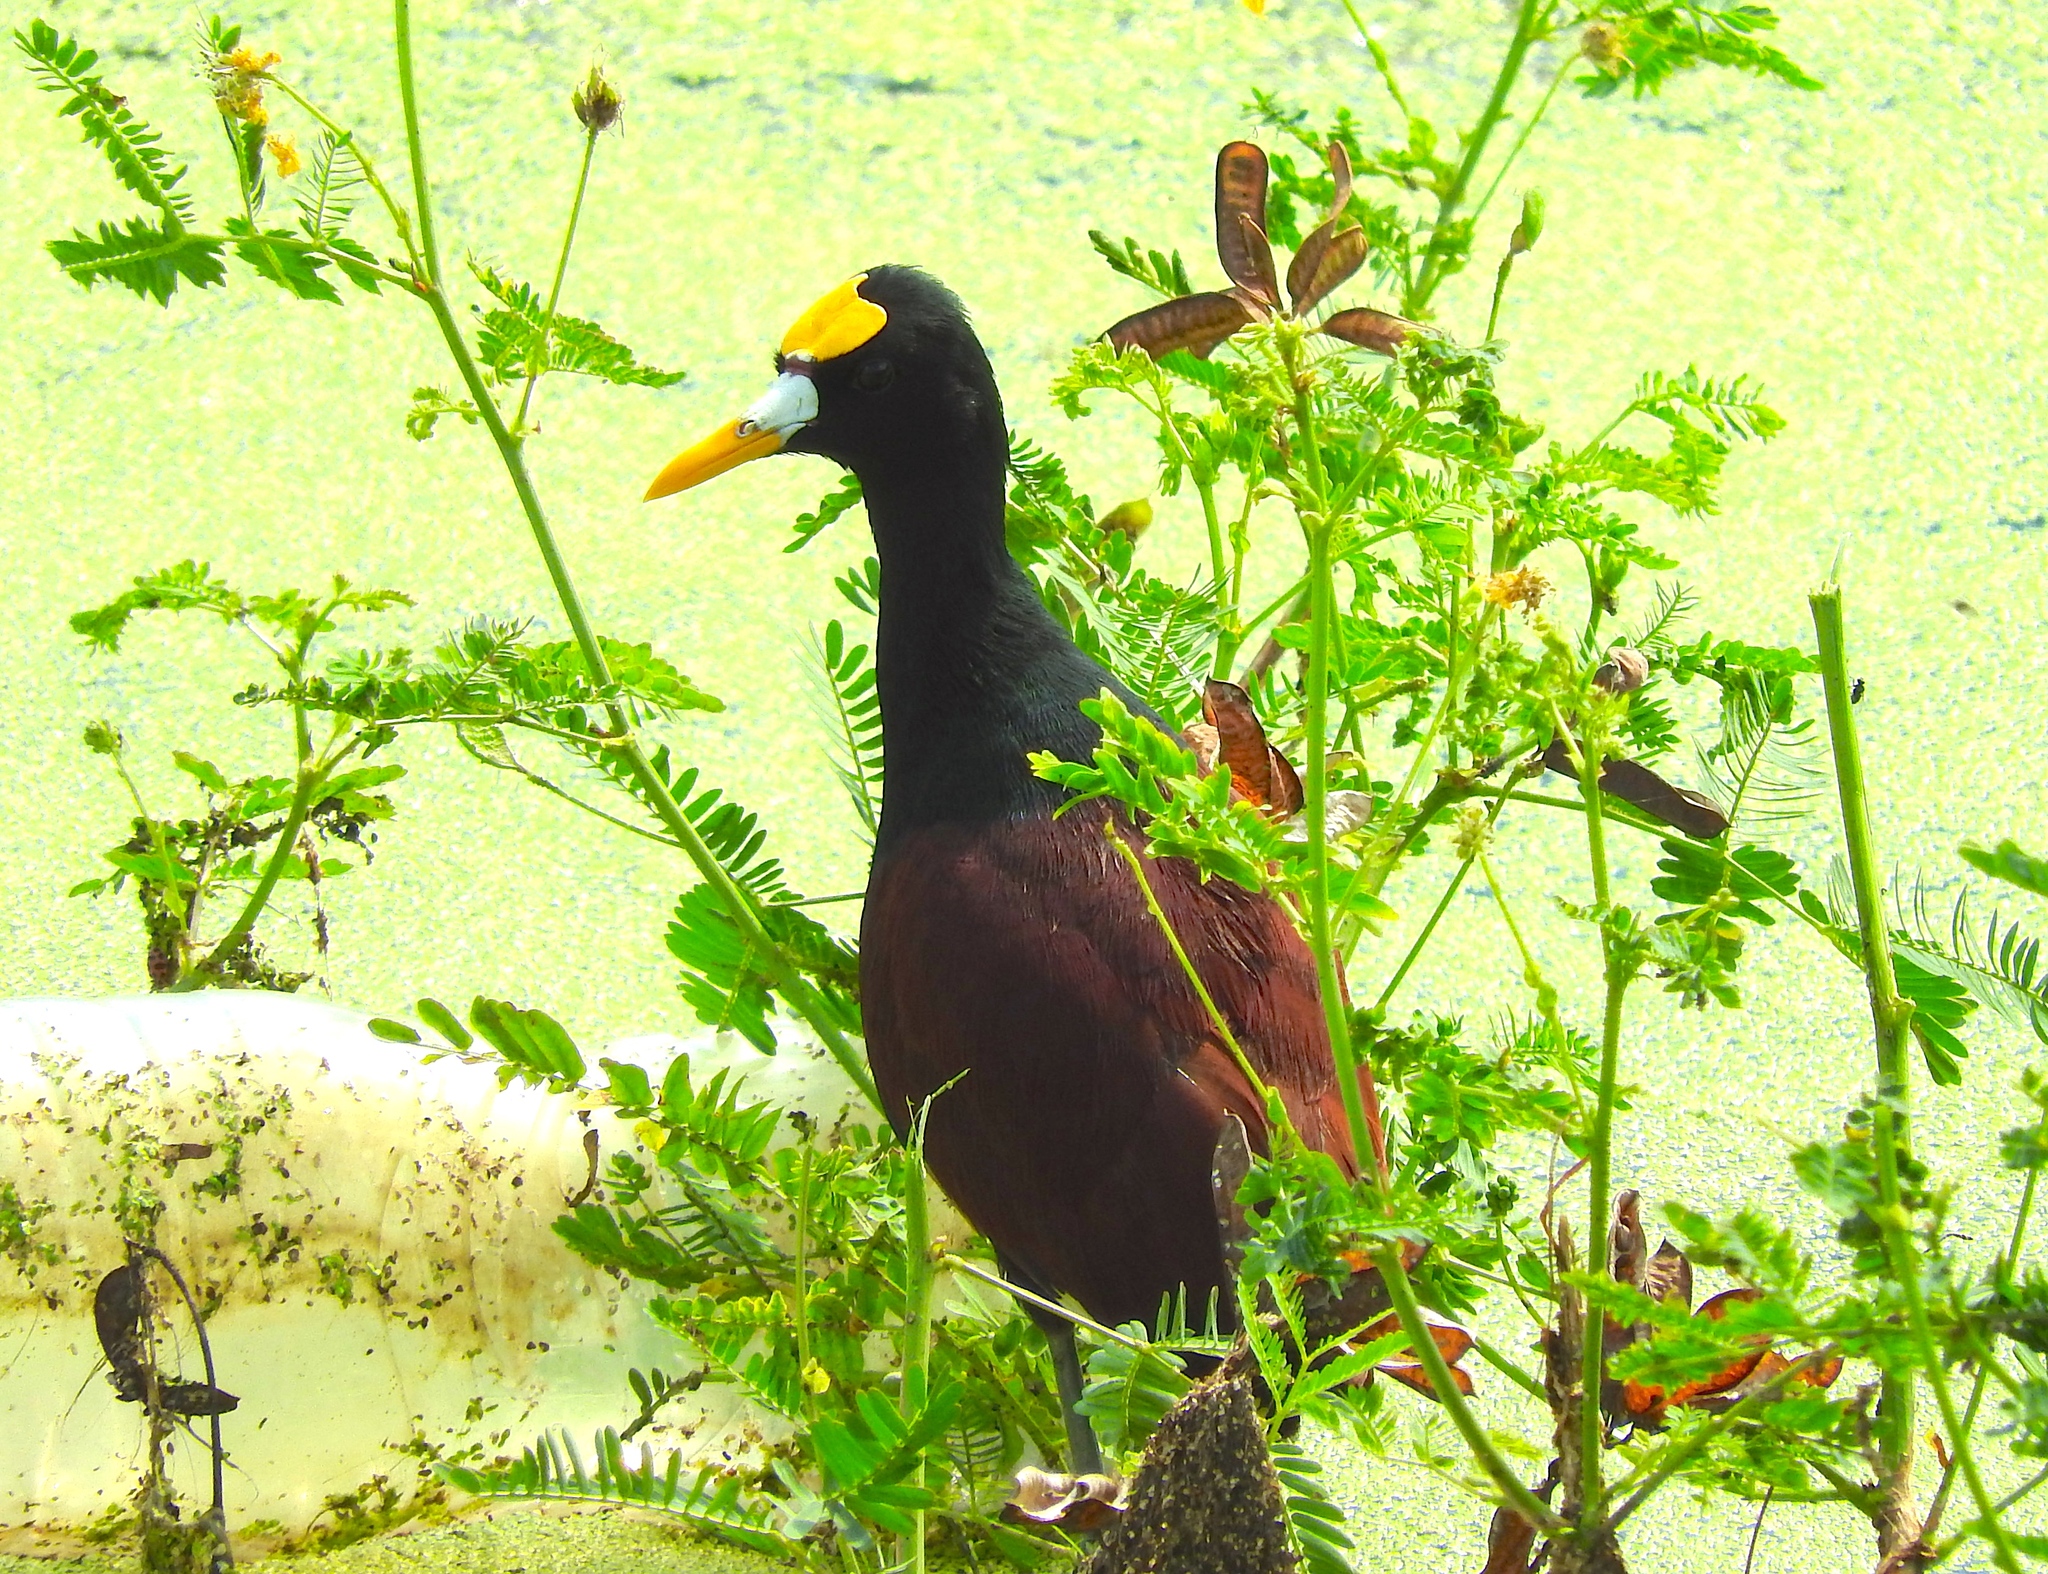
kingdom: Animalia
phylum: Chordata
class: Aves
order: Charadriiformes
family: Jacanidae
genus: Jacana
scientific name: Jacana spinosa
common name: Northern jacana
